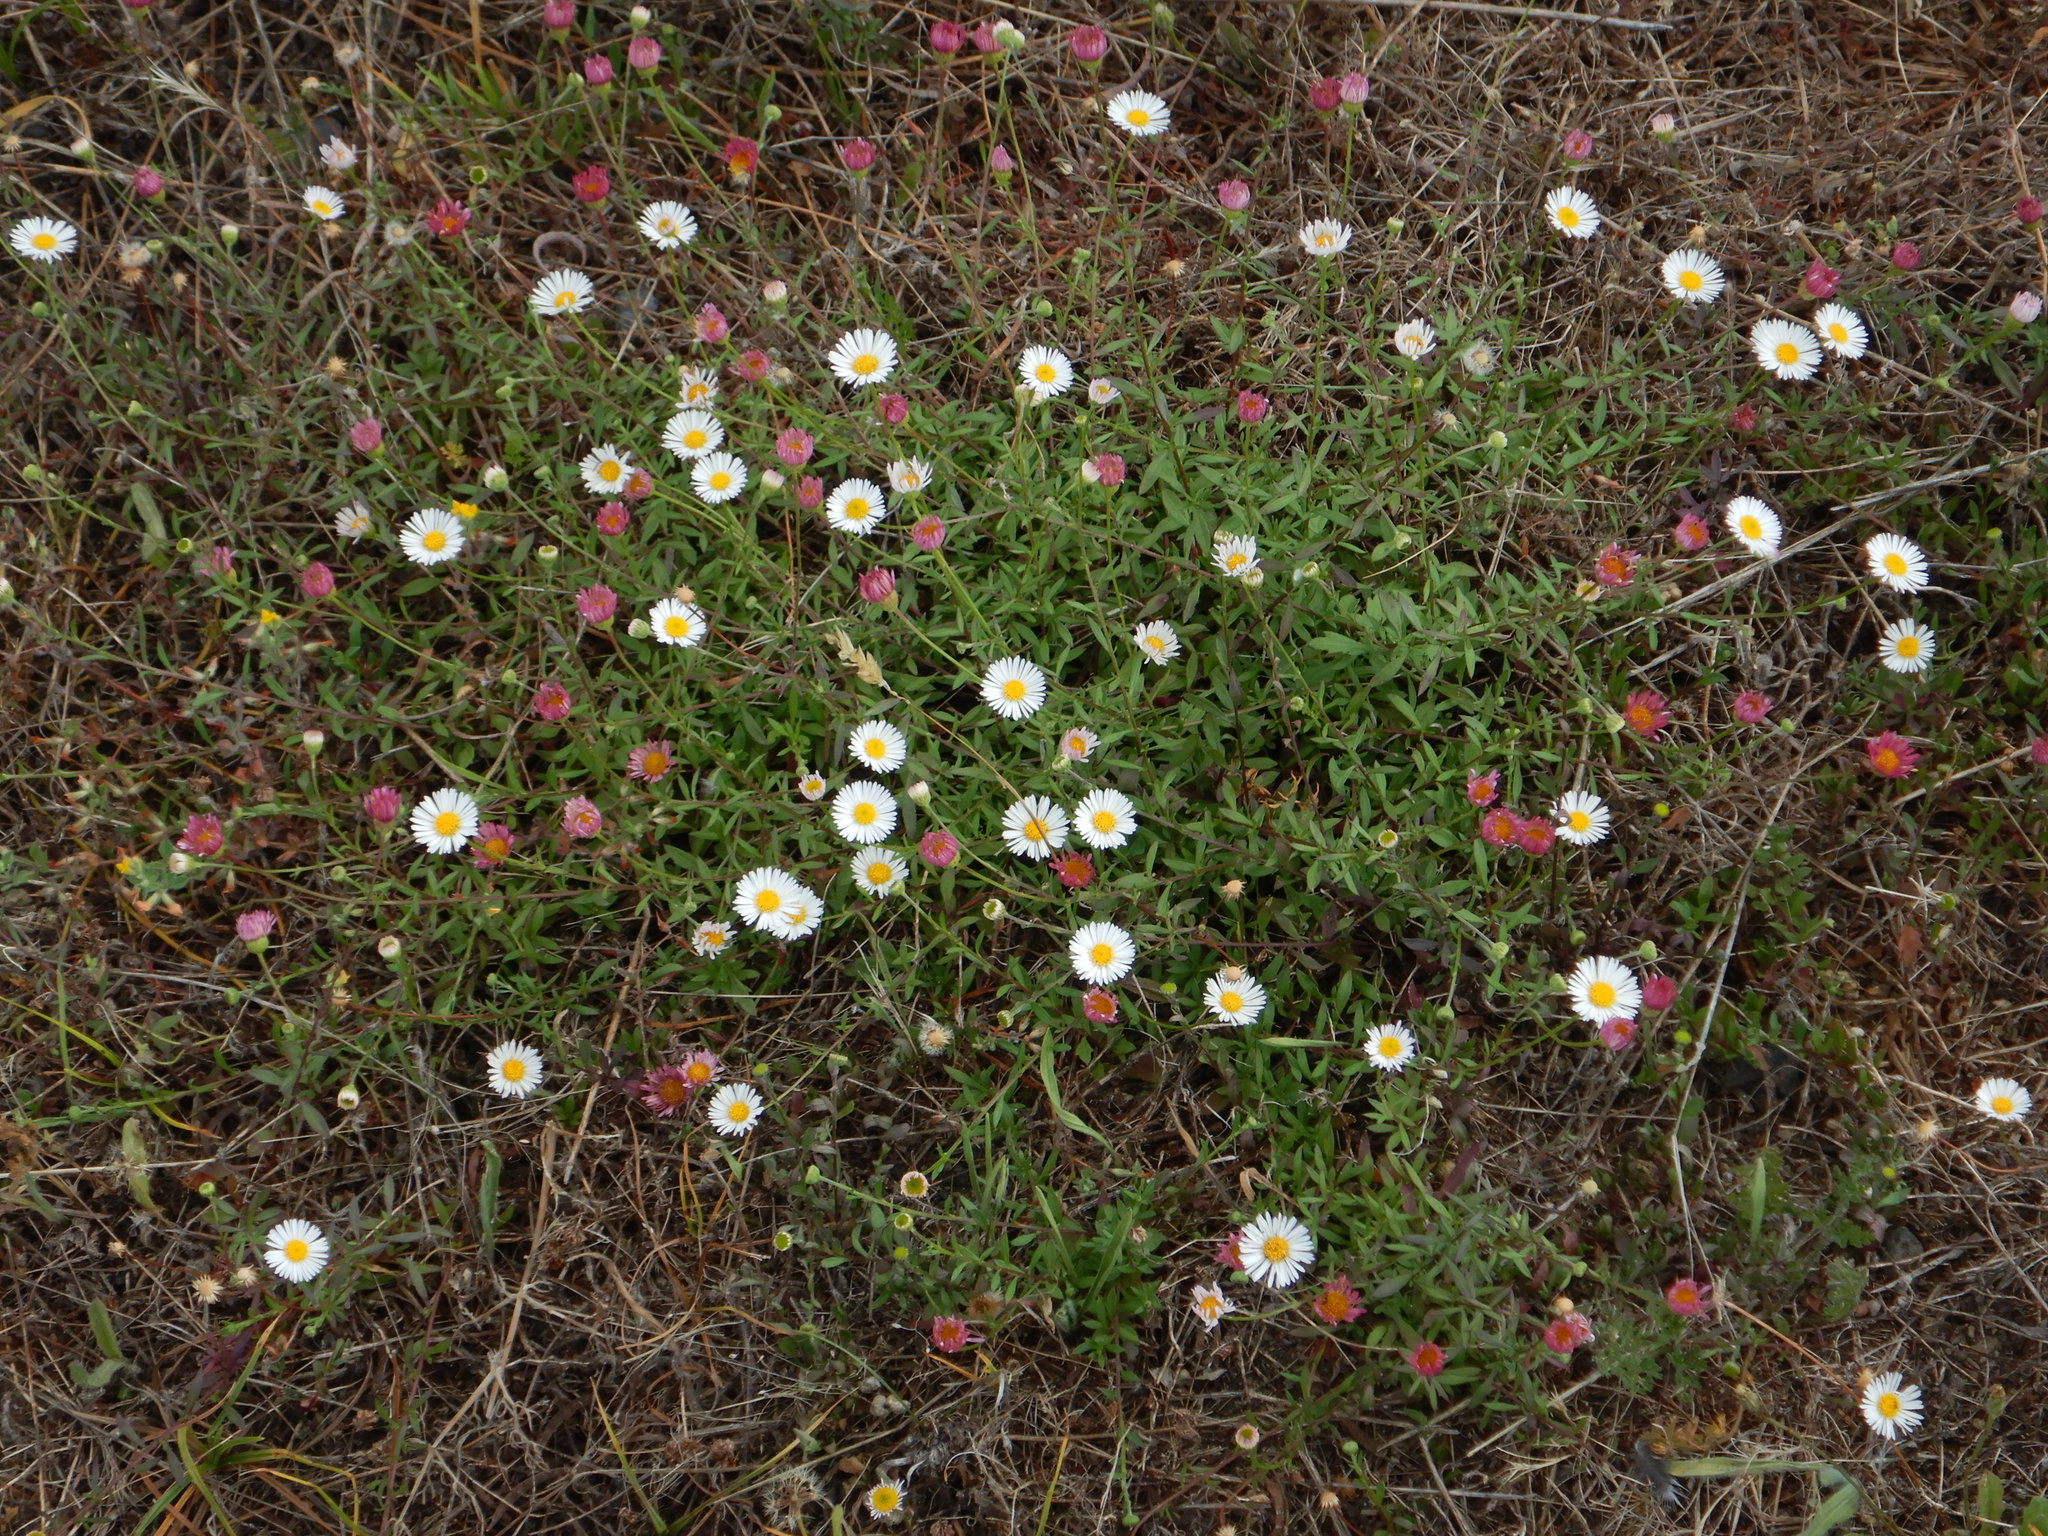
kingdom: Plantae
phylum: Tracheophyta
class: Magnoliopsida
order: Asterales
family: Asteraceae
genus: Erigeron
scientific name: Erigeron karvinskianus
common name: Mexican fleabane
